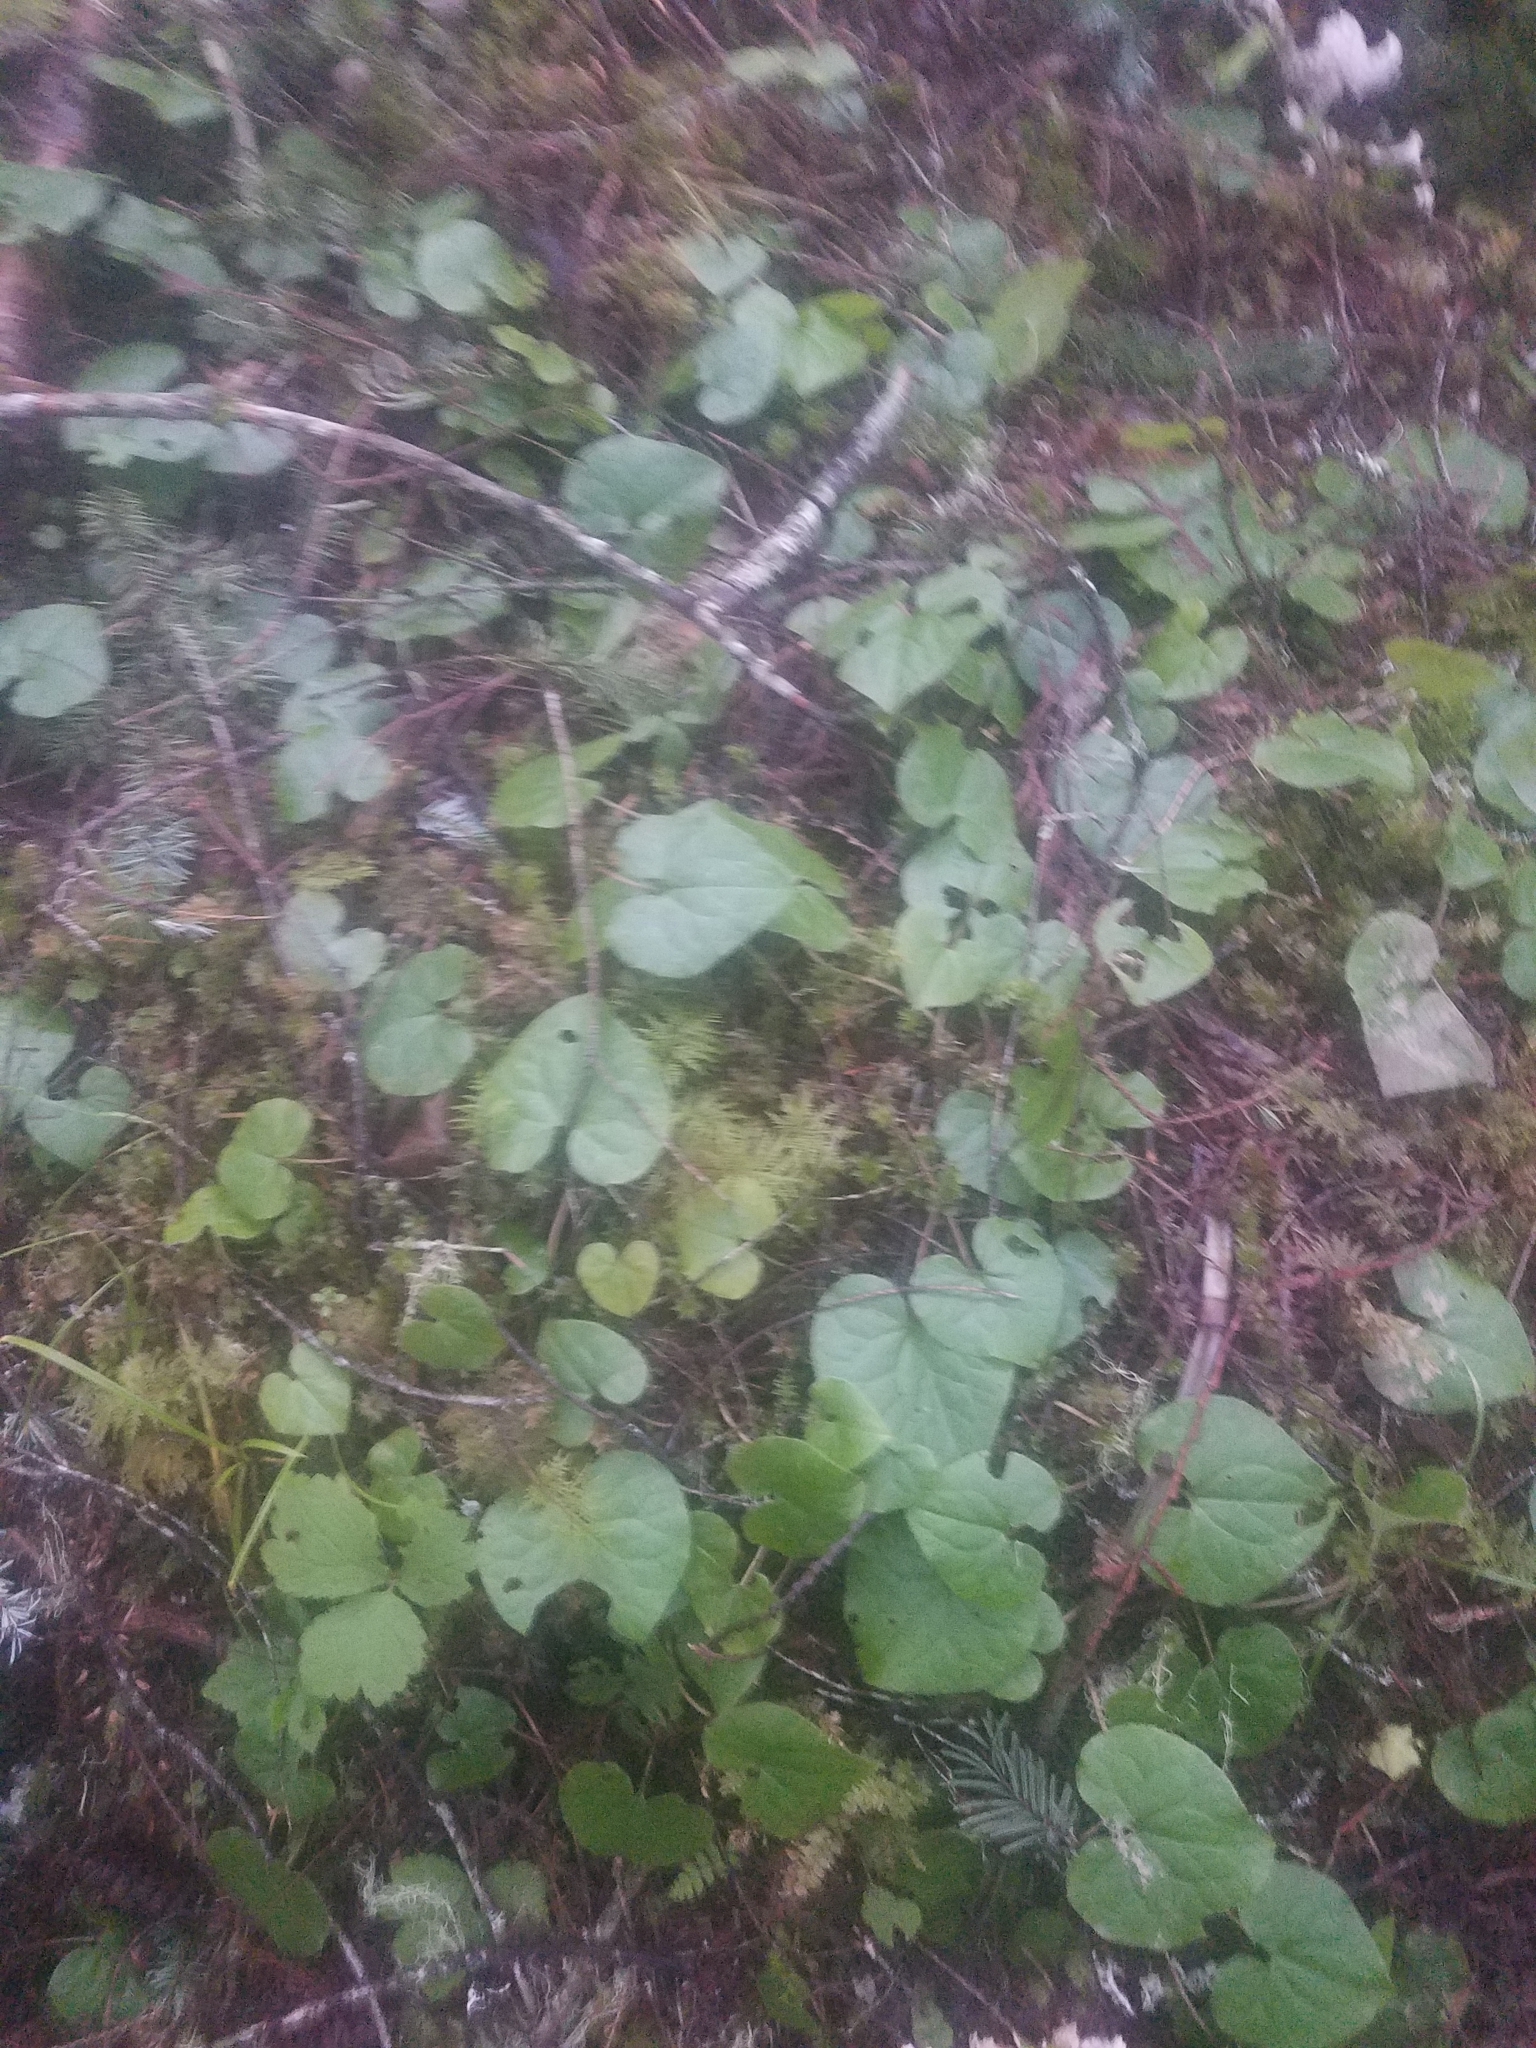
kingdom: Plantae
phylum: Tracheophyta
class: Magnoliopsida
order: Piperales
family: Aristolochiaceae
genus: Asarum
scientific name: Asarum caudatum
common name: Wild ginger
